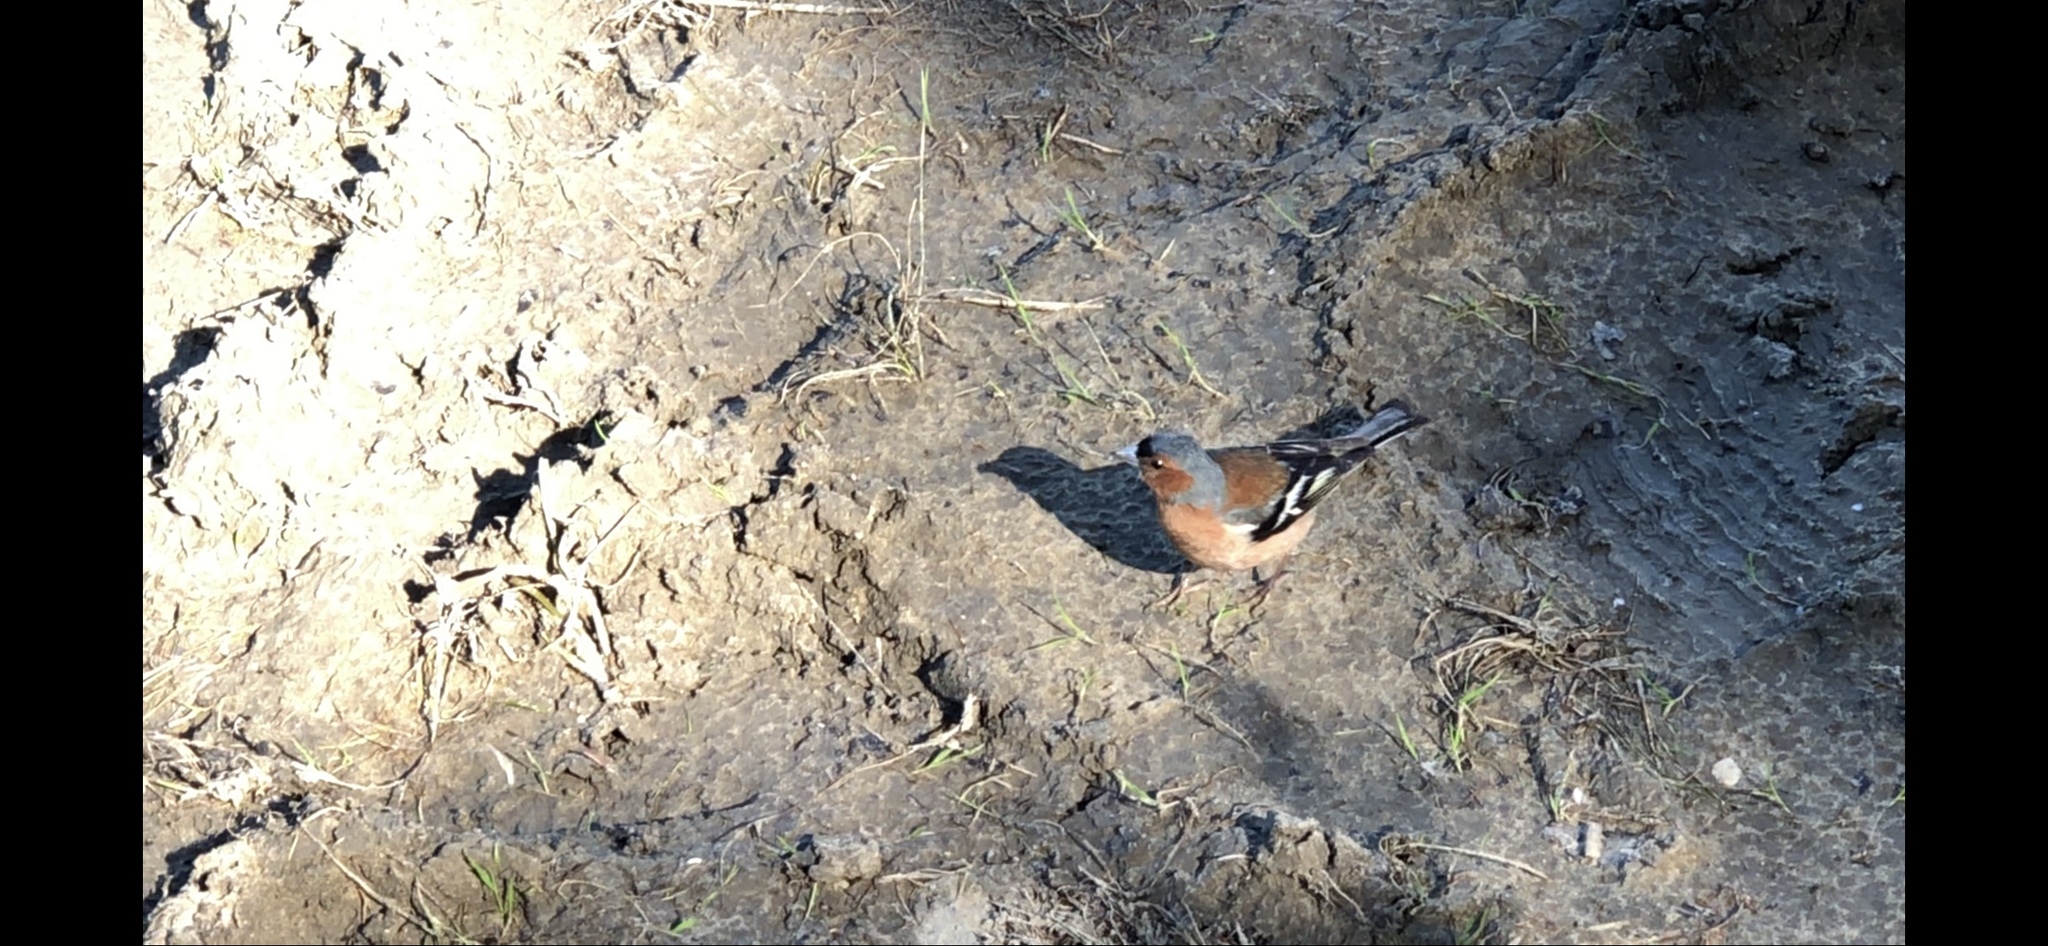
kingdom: Animalia
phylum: Chordata
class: Aves
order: Passeriformes
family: Fringillidae
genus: Fringilla
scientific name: Fringilla coelebs
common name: Common chaffinch
